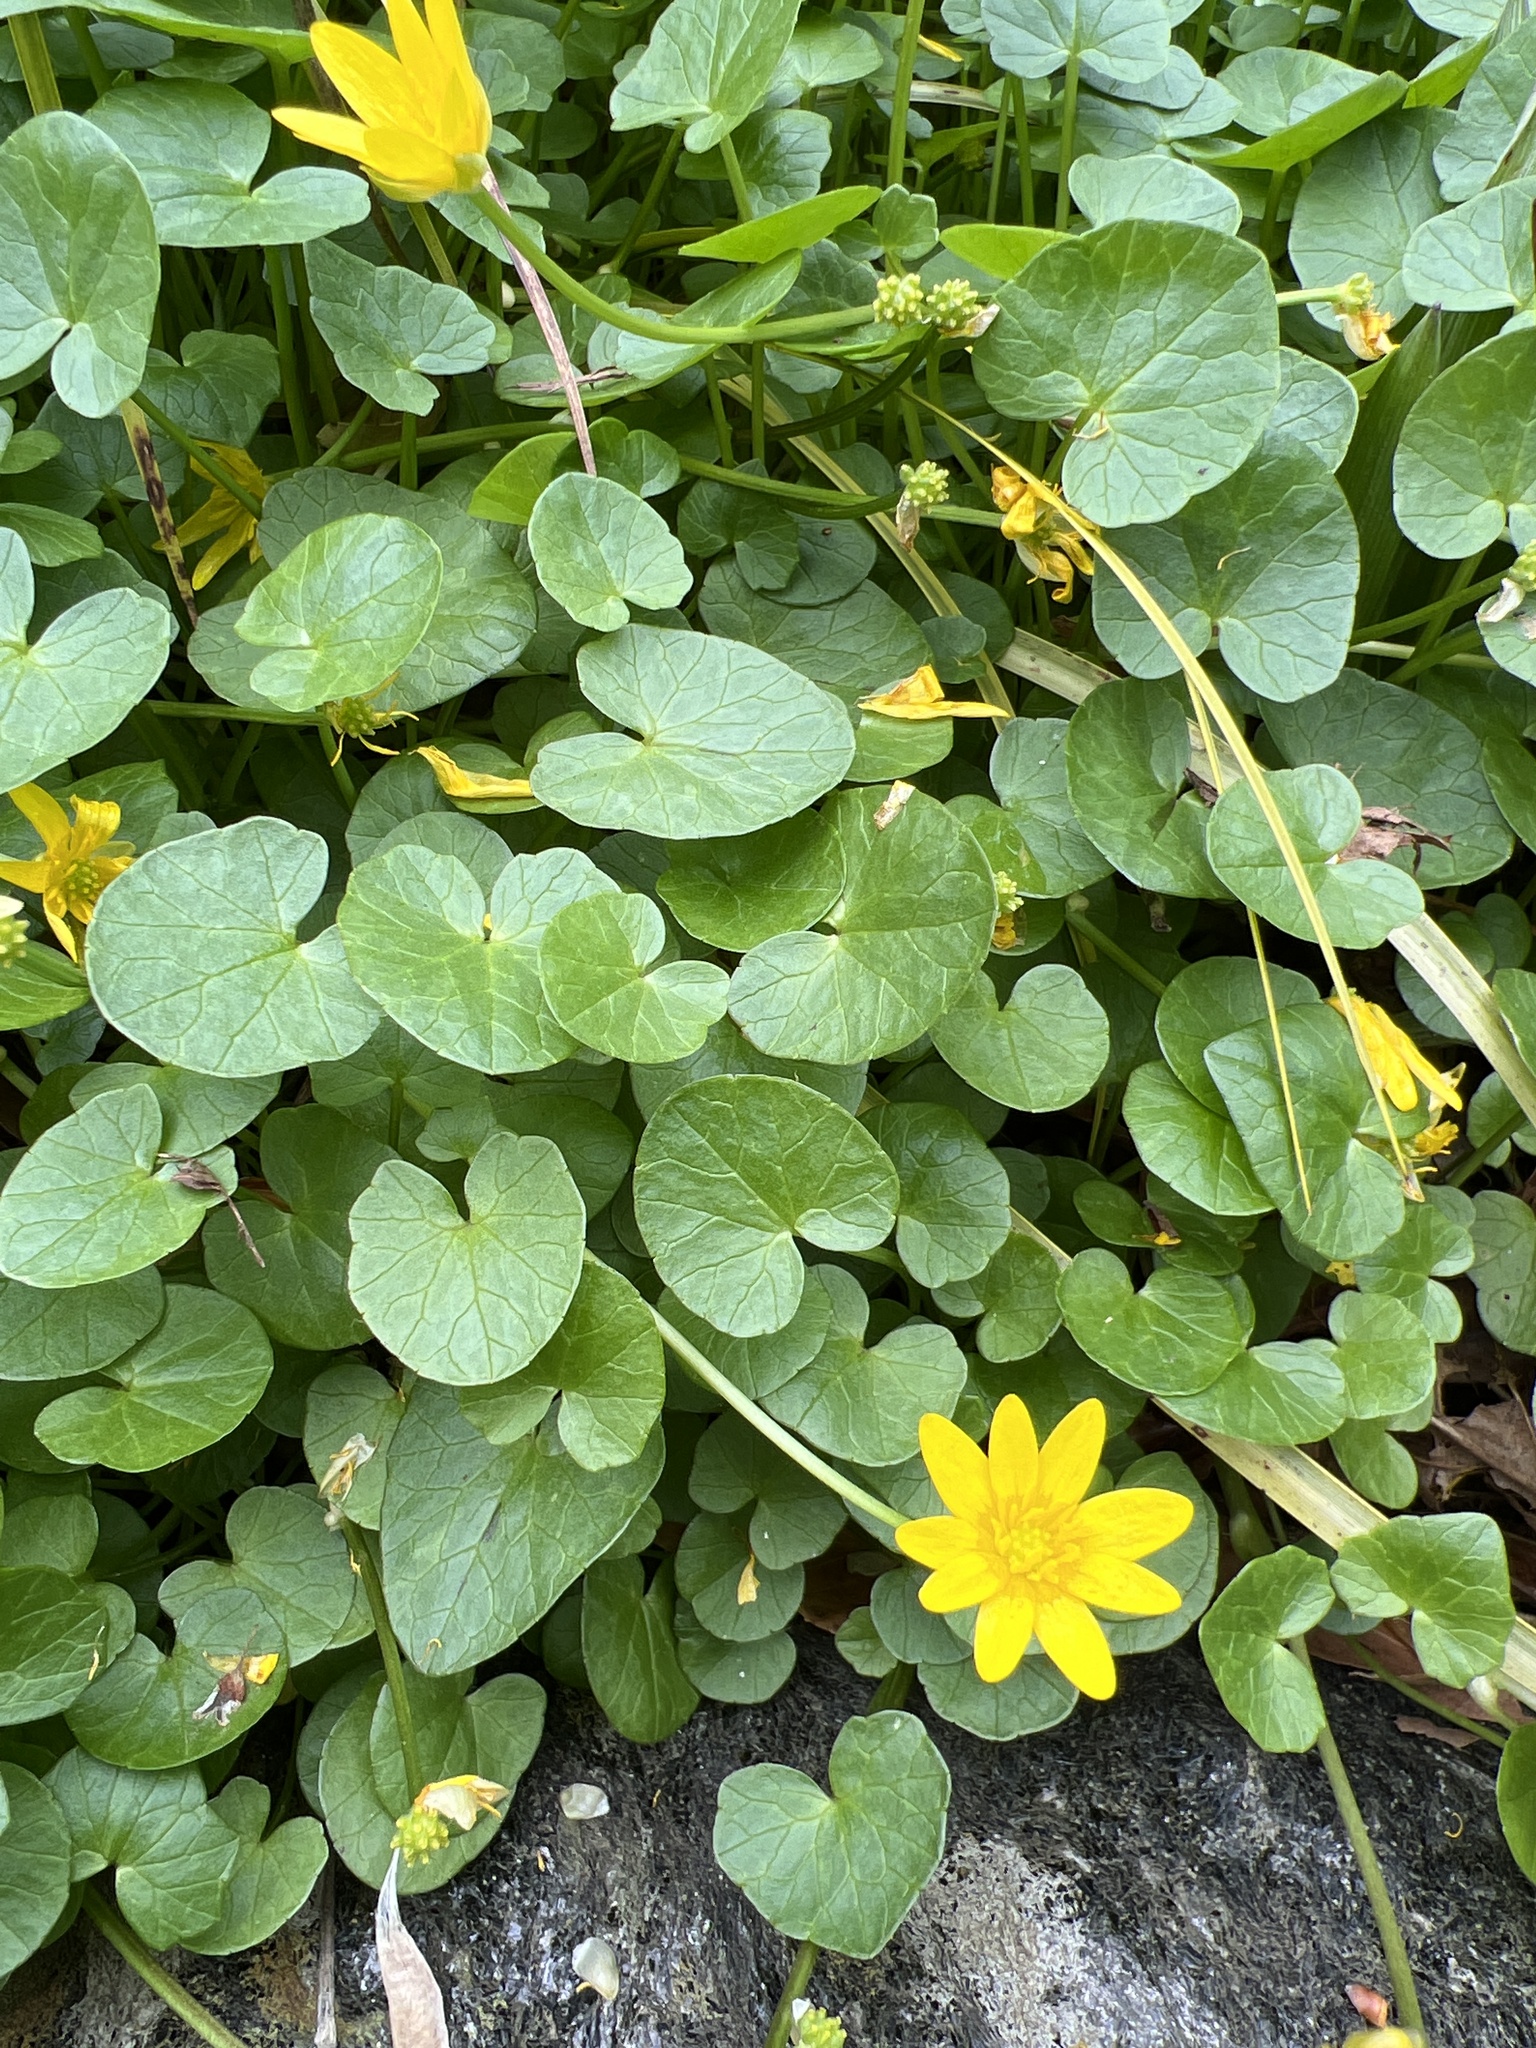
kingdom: Plantae
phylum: Tracheophyta
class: Magnoliopsida
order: Ranunculales
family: Ranunculaceae
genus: Ficaria
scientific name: Ficaria verna
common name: Lesser celandine
